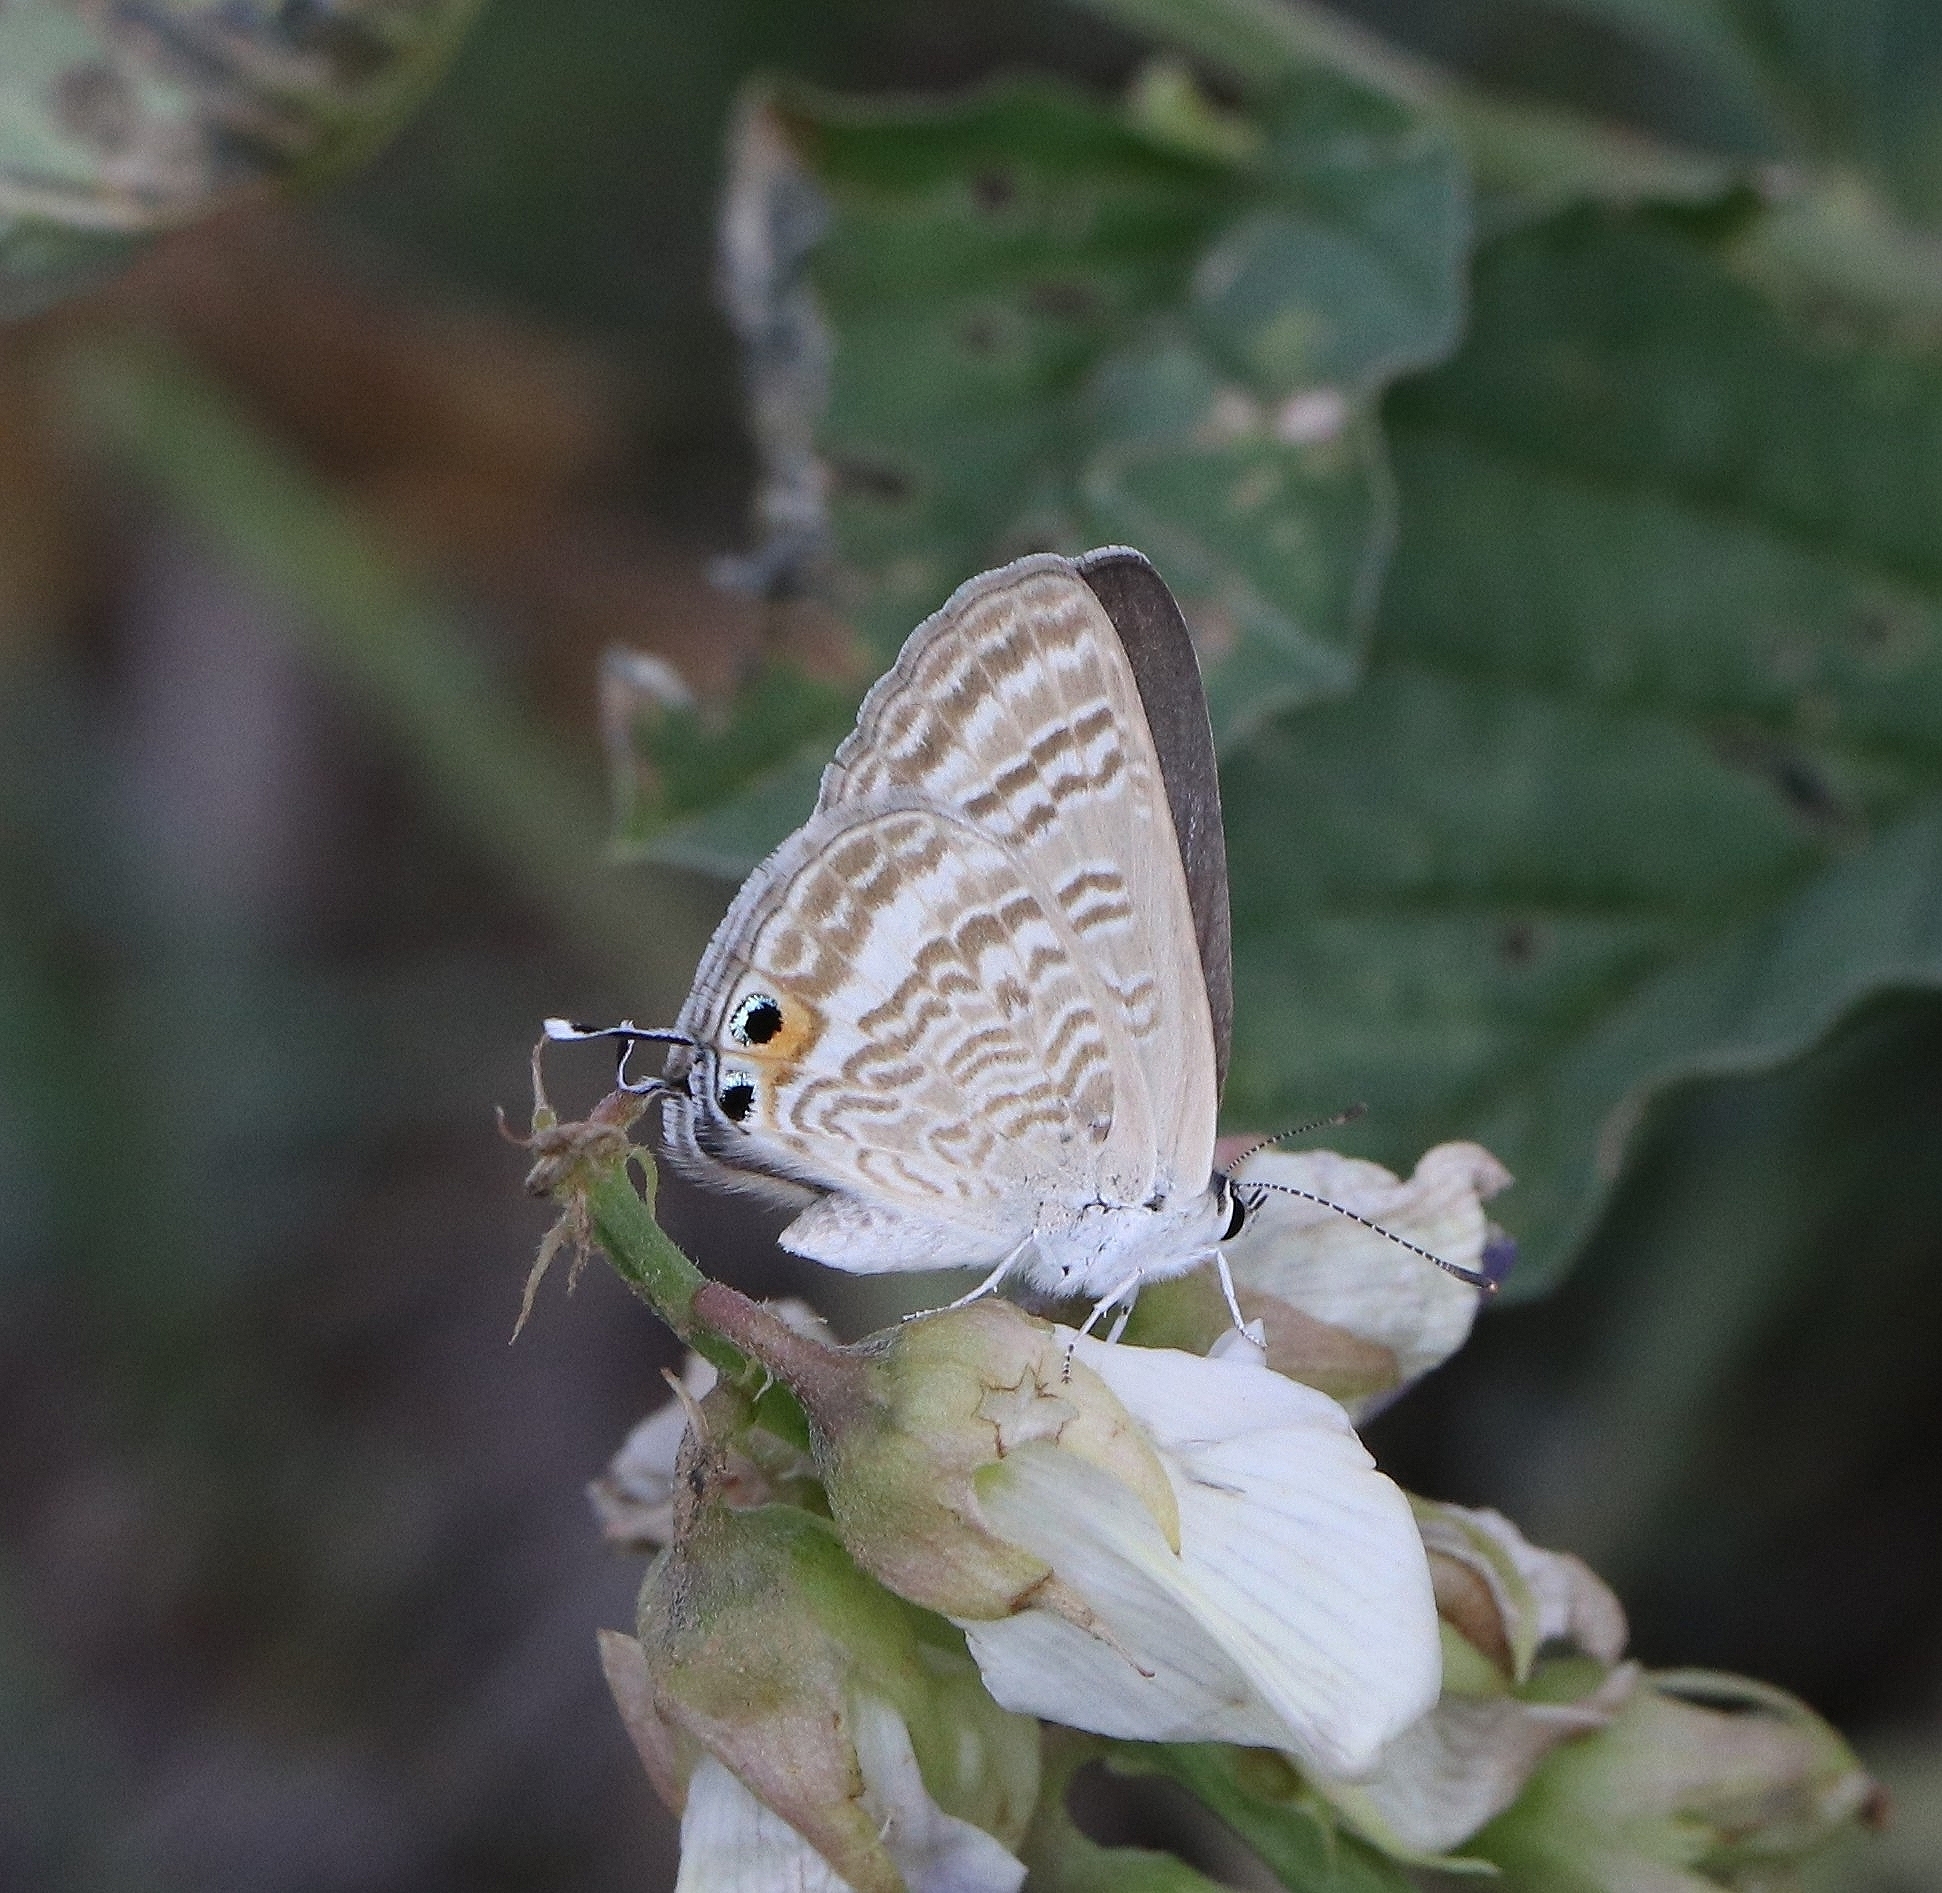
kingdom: Animalia
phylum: Arthropoda
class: Insecta
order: Lepidoptera
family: Lycaenidae
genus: Lampides
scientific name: Lampides boeticus
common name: Long-tailed blue
